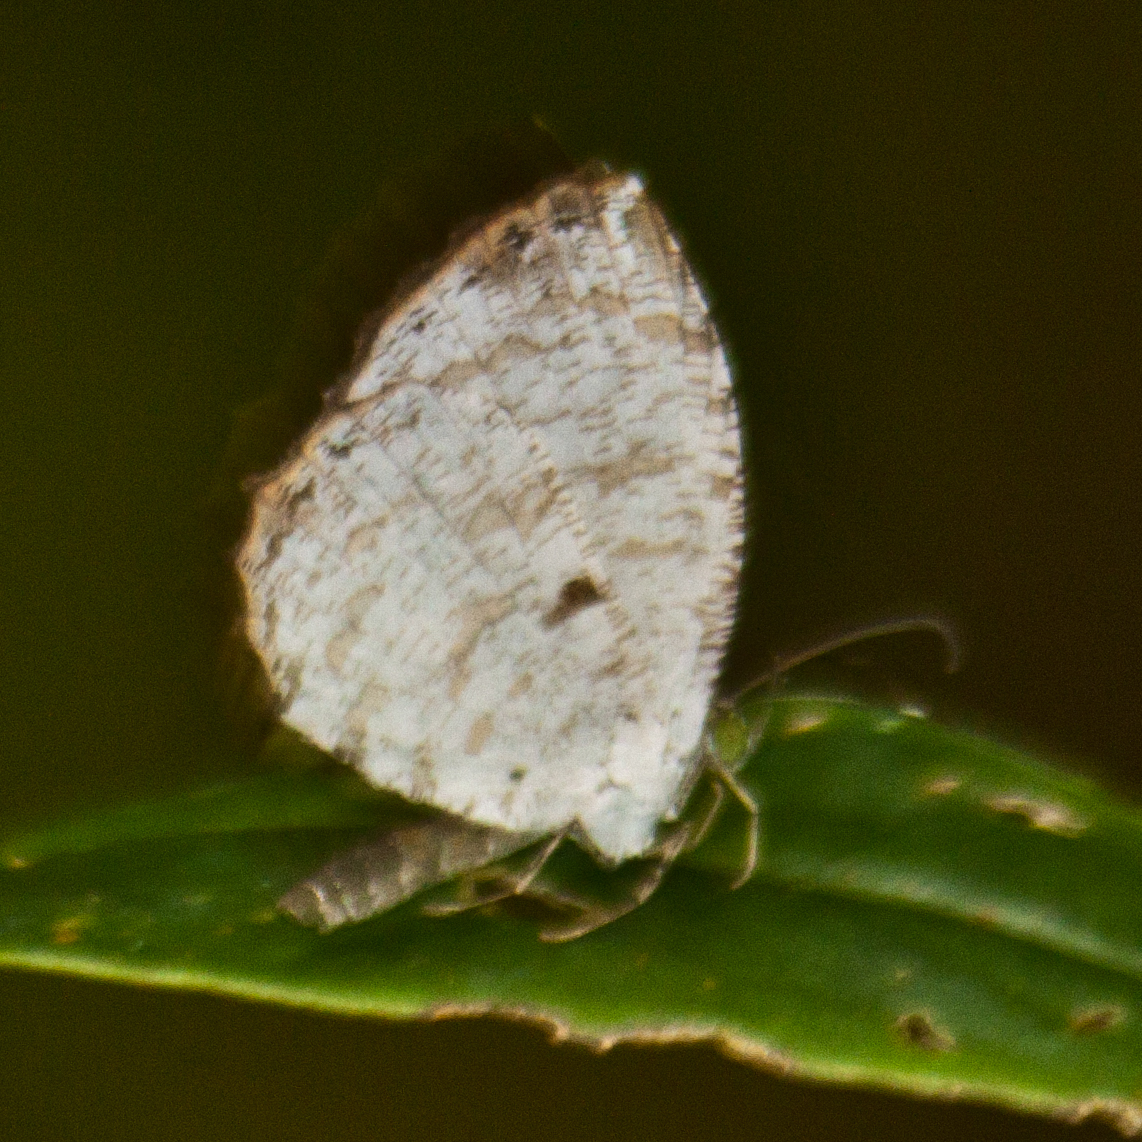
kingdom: Animalia
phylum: Arthropoda
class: Insecta
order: Lepidoptera
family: Lycaenidae
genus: Allotinus
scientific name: Allotinus substrigosa
